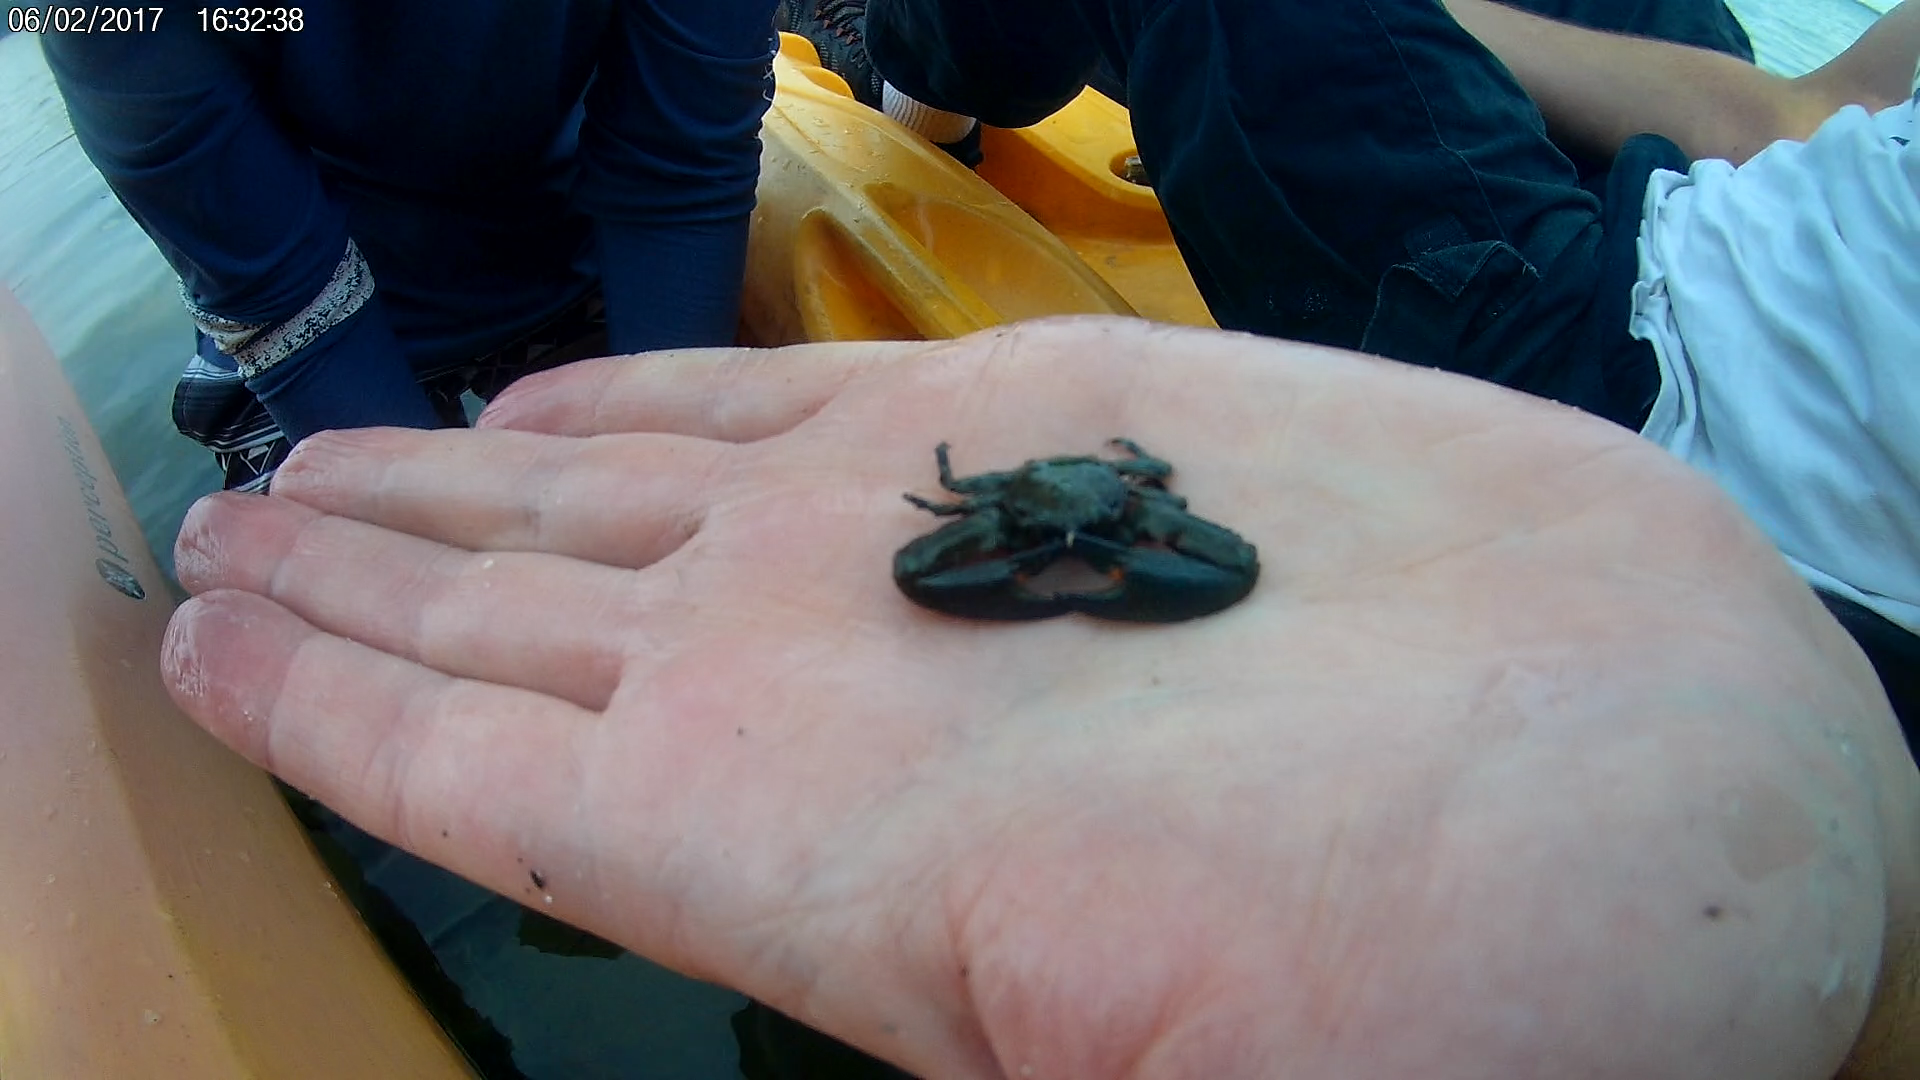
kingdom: Animalia
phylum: Arthropoda
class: Malacostraca
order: Decapoda
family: Porcellanidae
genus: Petrolisthes
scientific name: Petrolisthes armatus
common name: Green porcelain crab
